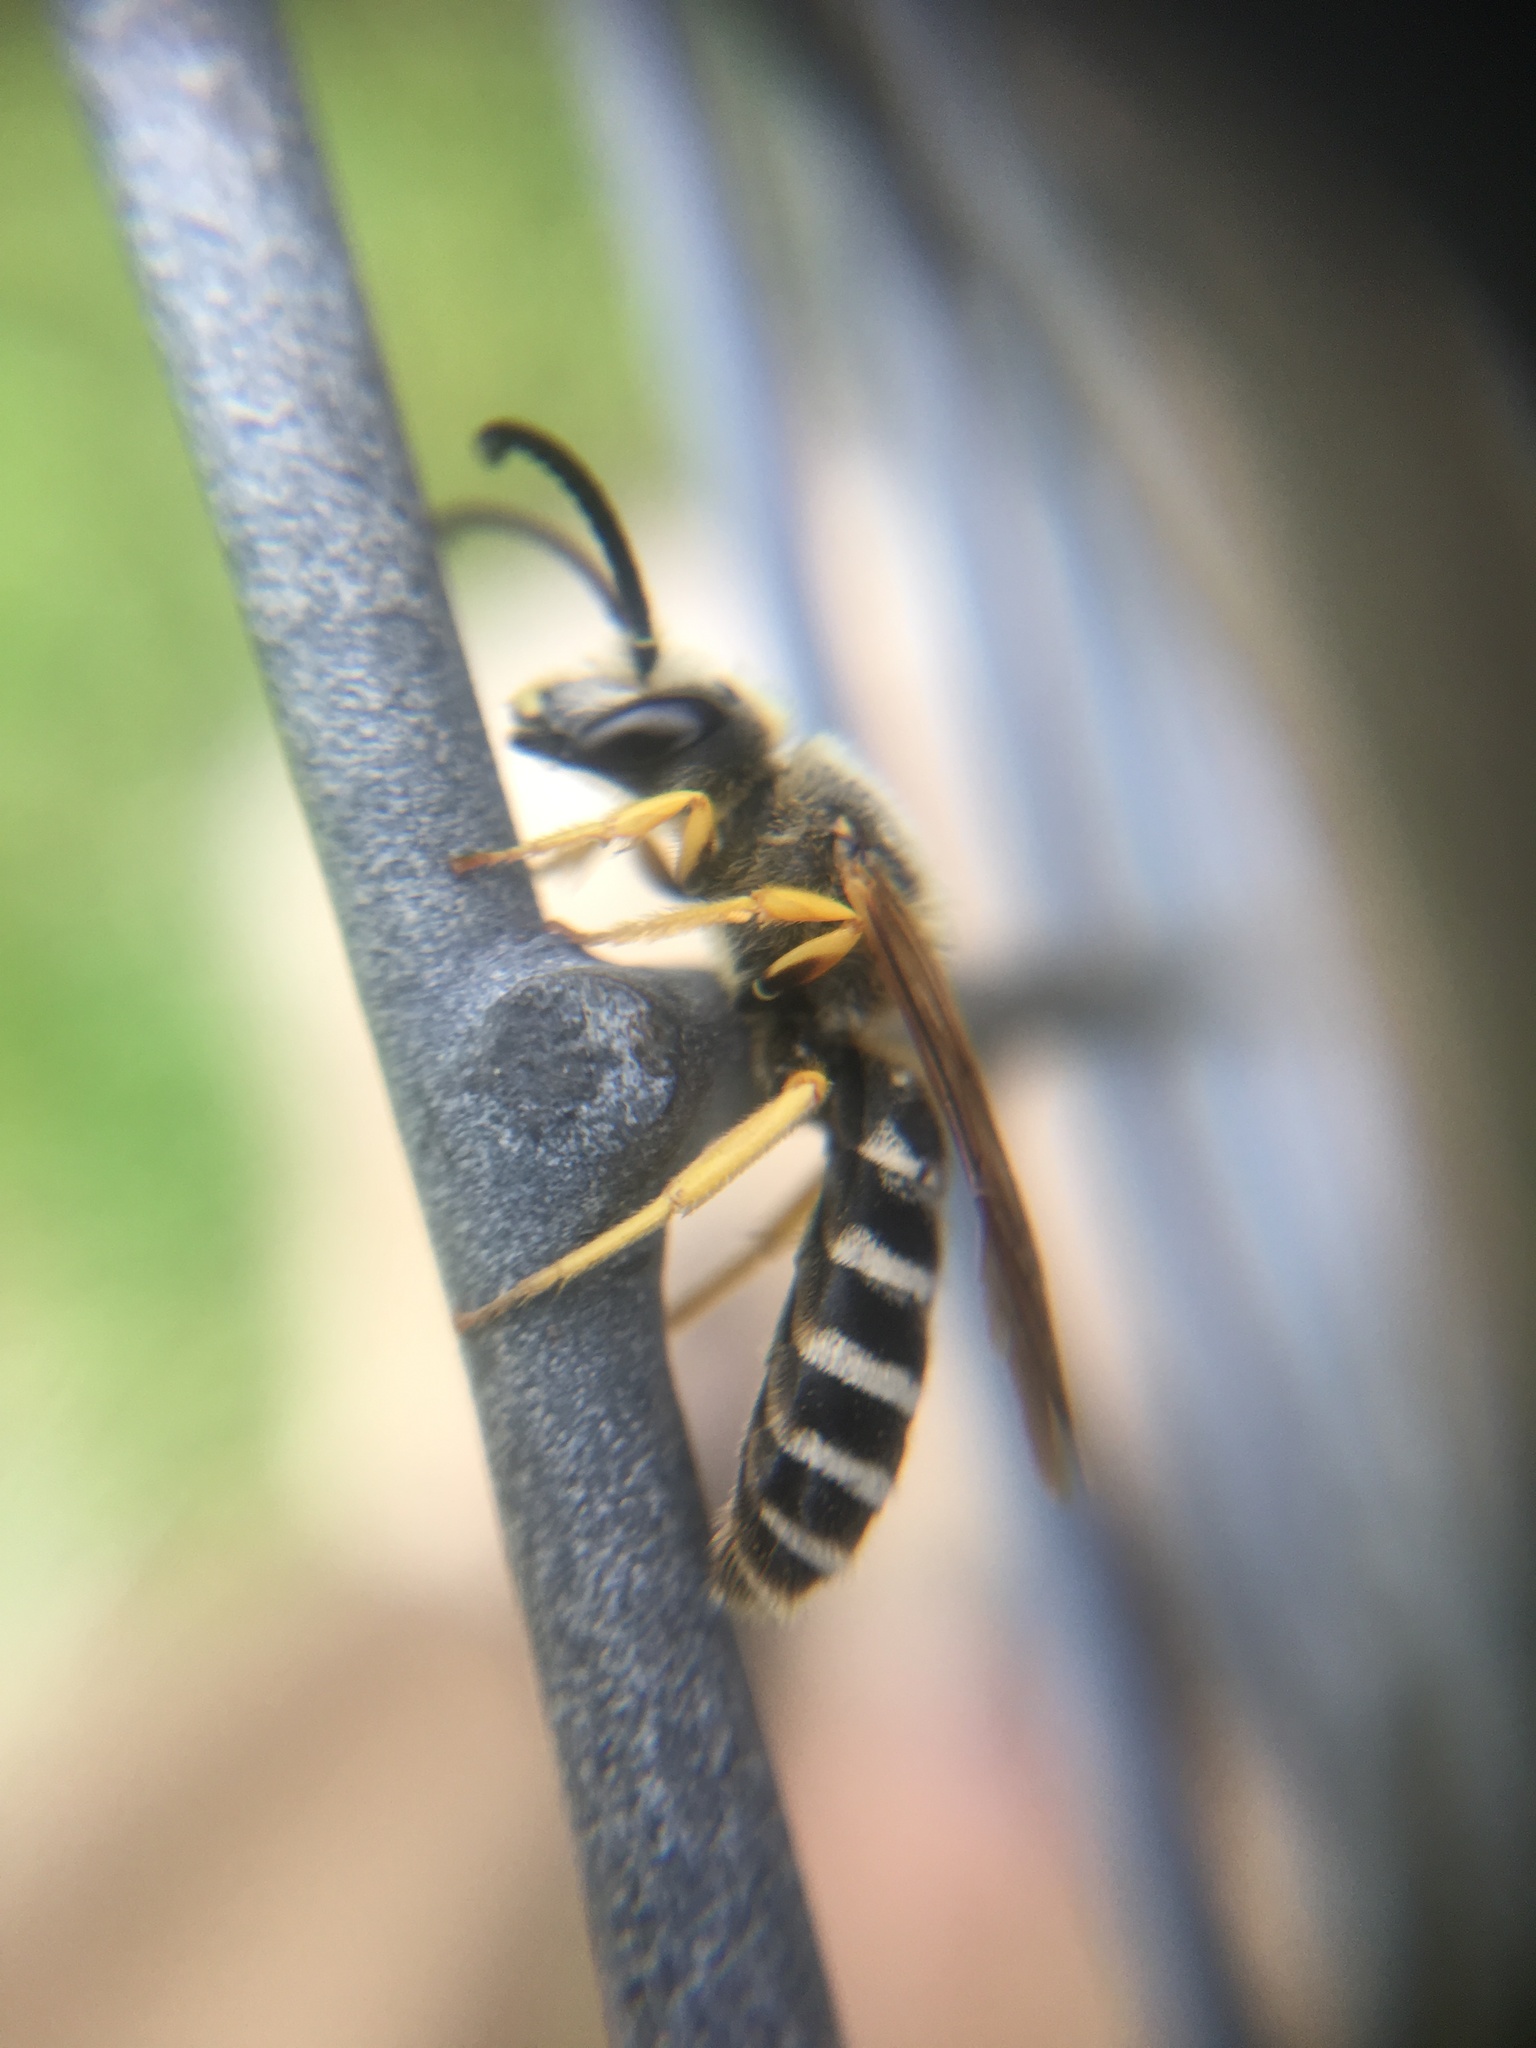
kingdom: Animalia
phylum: Arthropoda
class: Insecta
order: Hymenoptera
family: Halictidae
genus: Halictus
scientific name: Halictus scabiosae
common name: Great banded furrow bee
